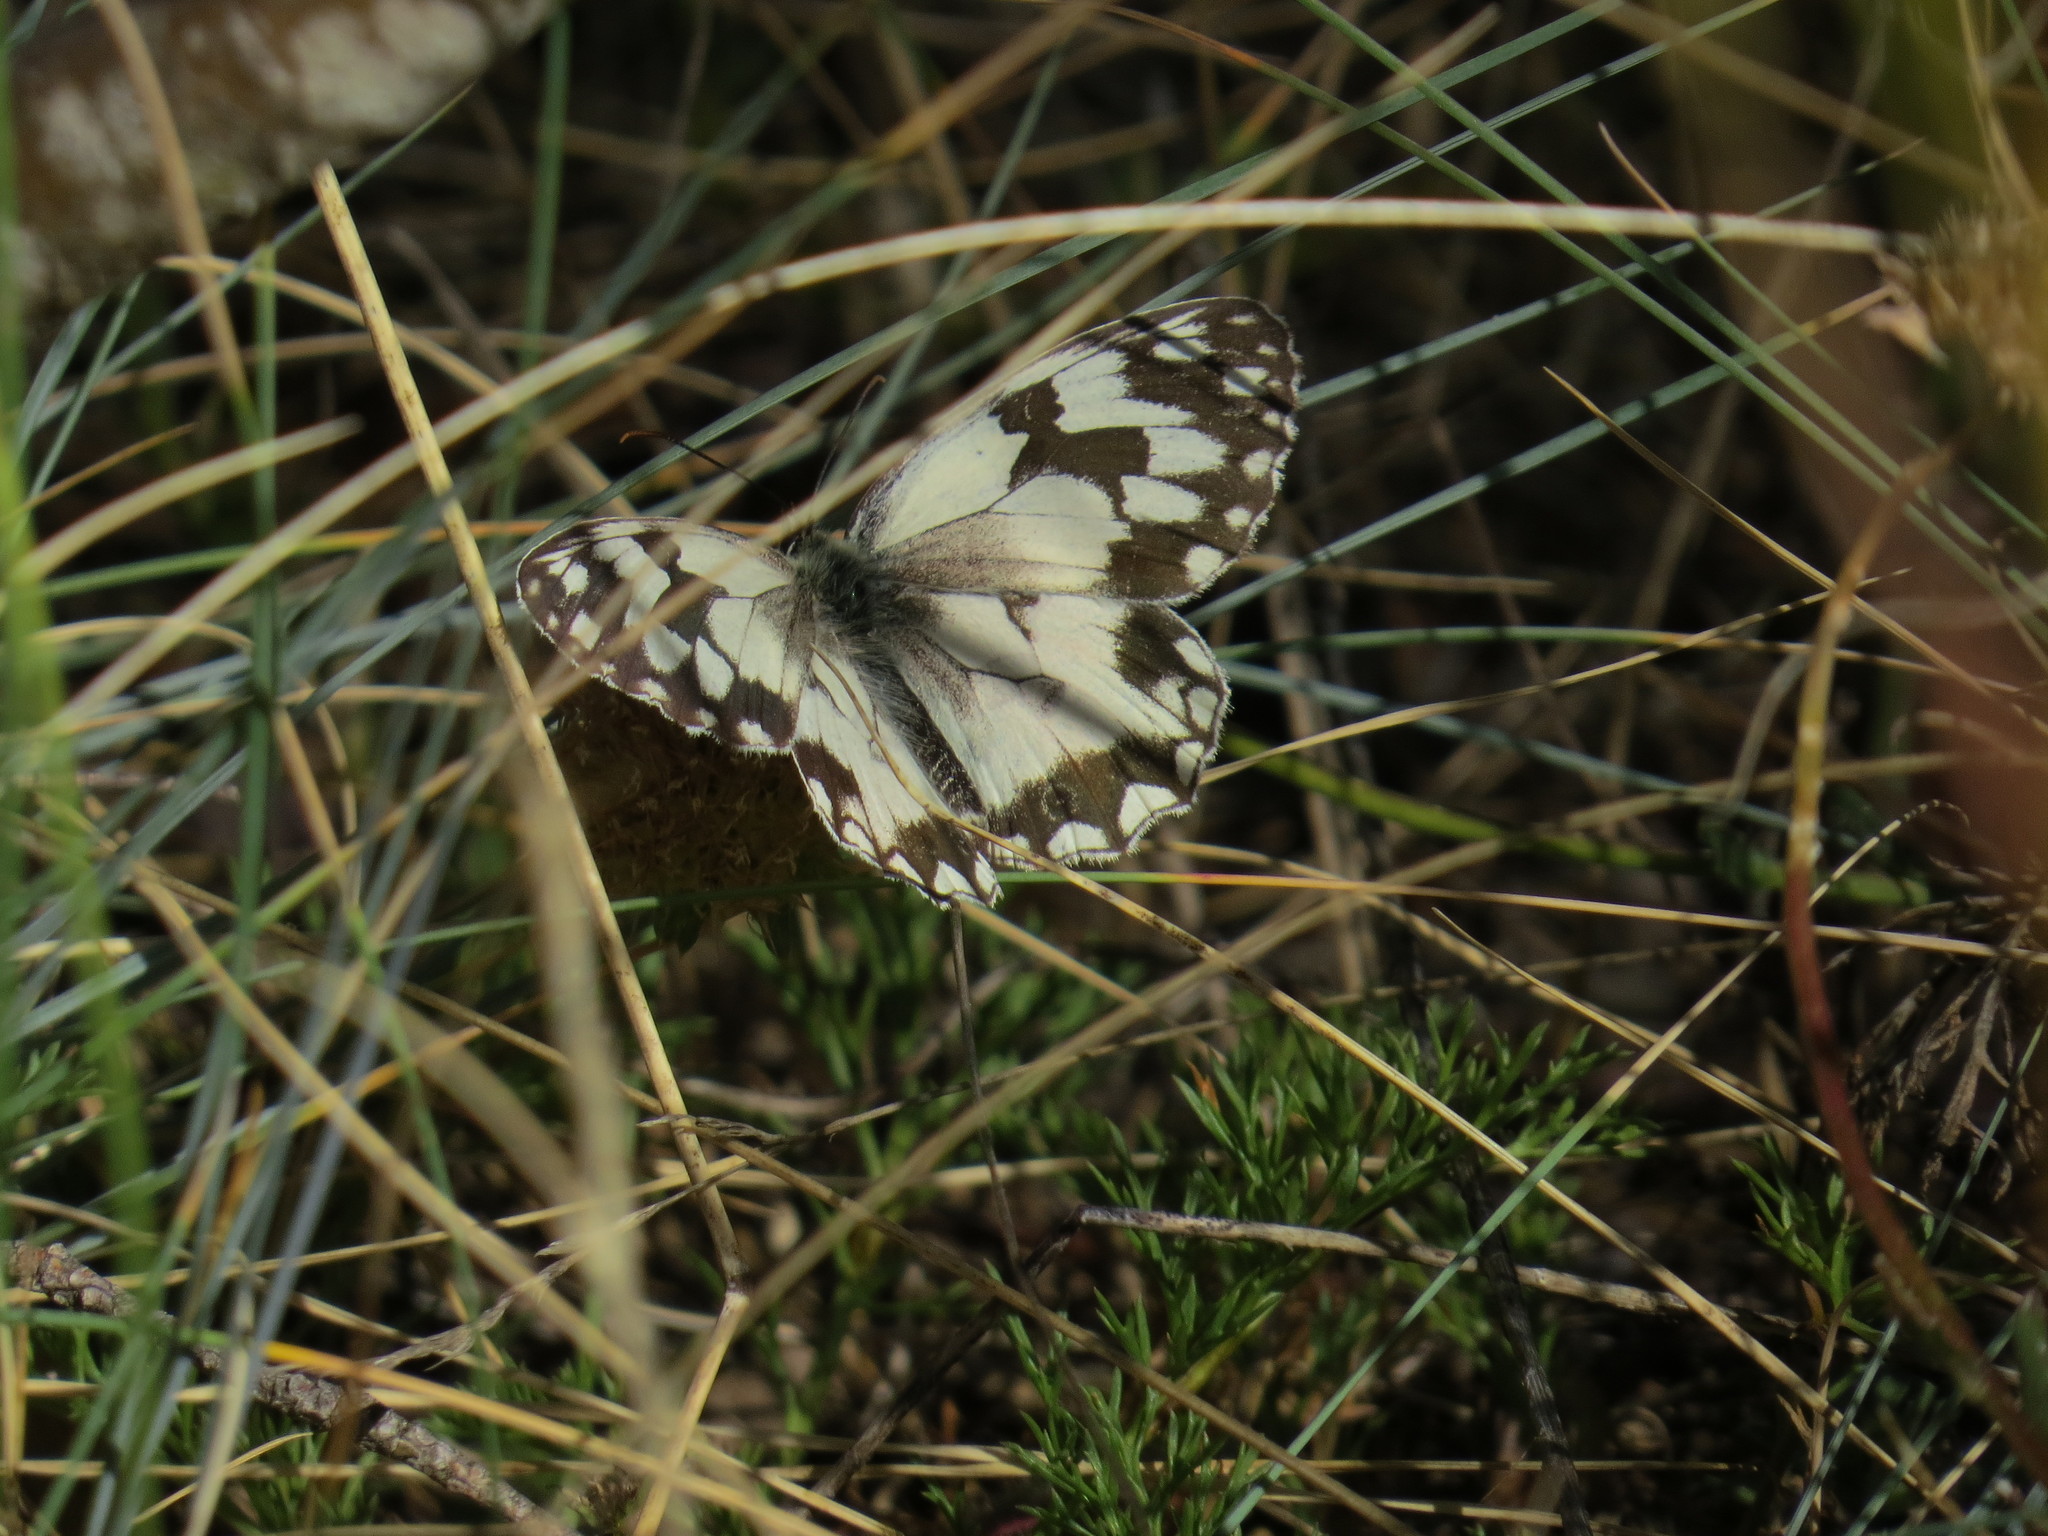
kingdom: Animalia
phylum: Arthropoda
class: Insecta
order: Lepidoptera
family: Nymphalidae
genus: Melanargia
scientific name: Melanargia lachesis
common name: Iberian marbled white
